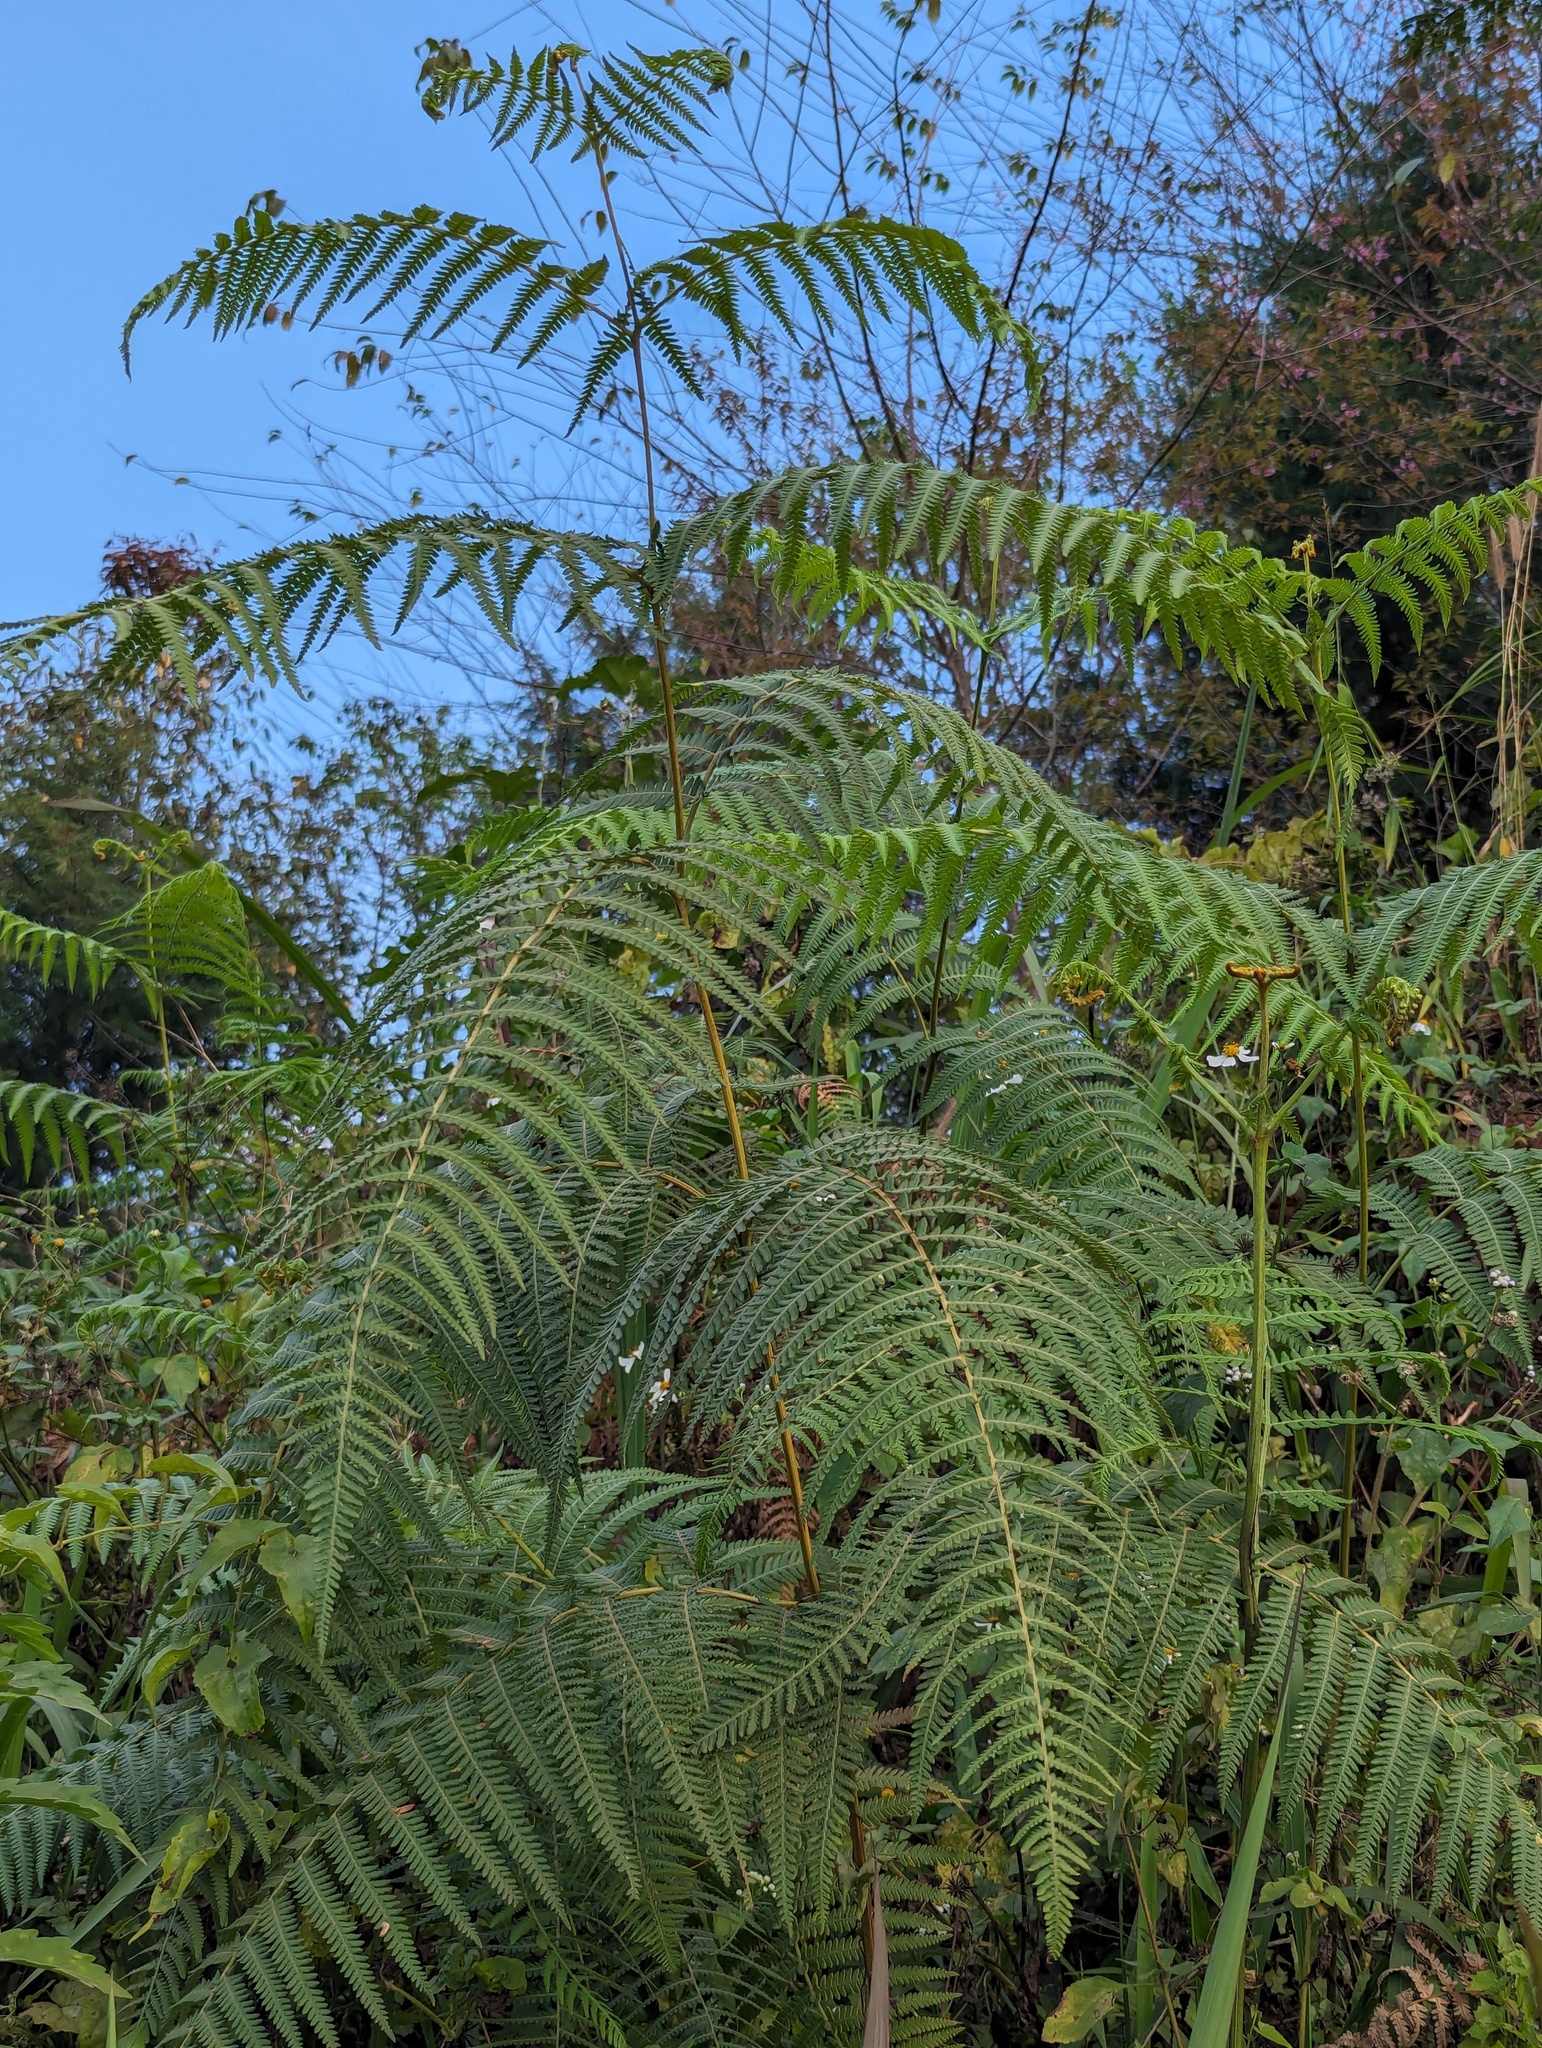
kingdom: Plantae
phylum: Tracheophyta
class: Polypodiopsida
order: Polypodiales
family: Dennstaedtiaceae
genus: Pteridium
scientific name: Pteridium aquilinum
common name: Bracken
